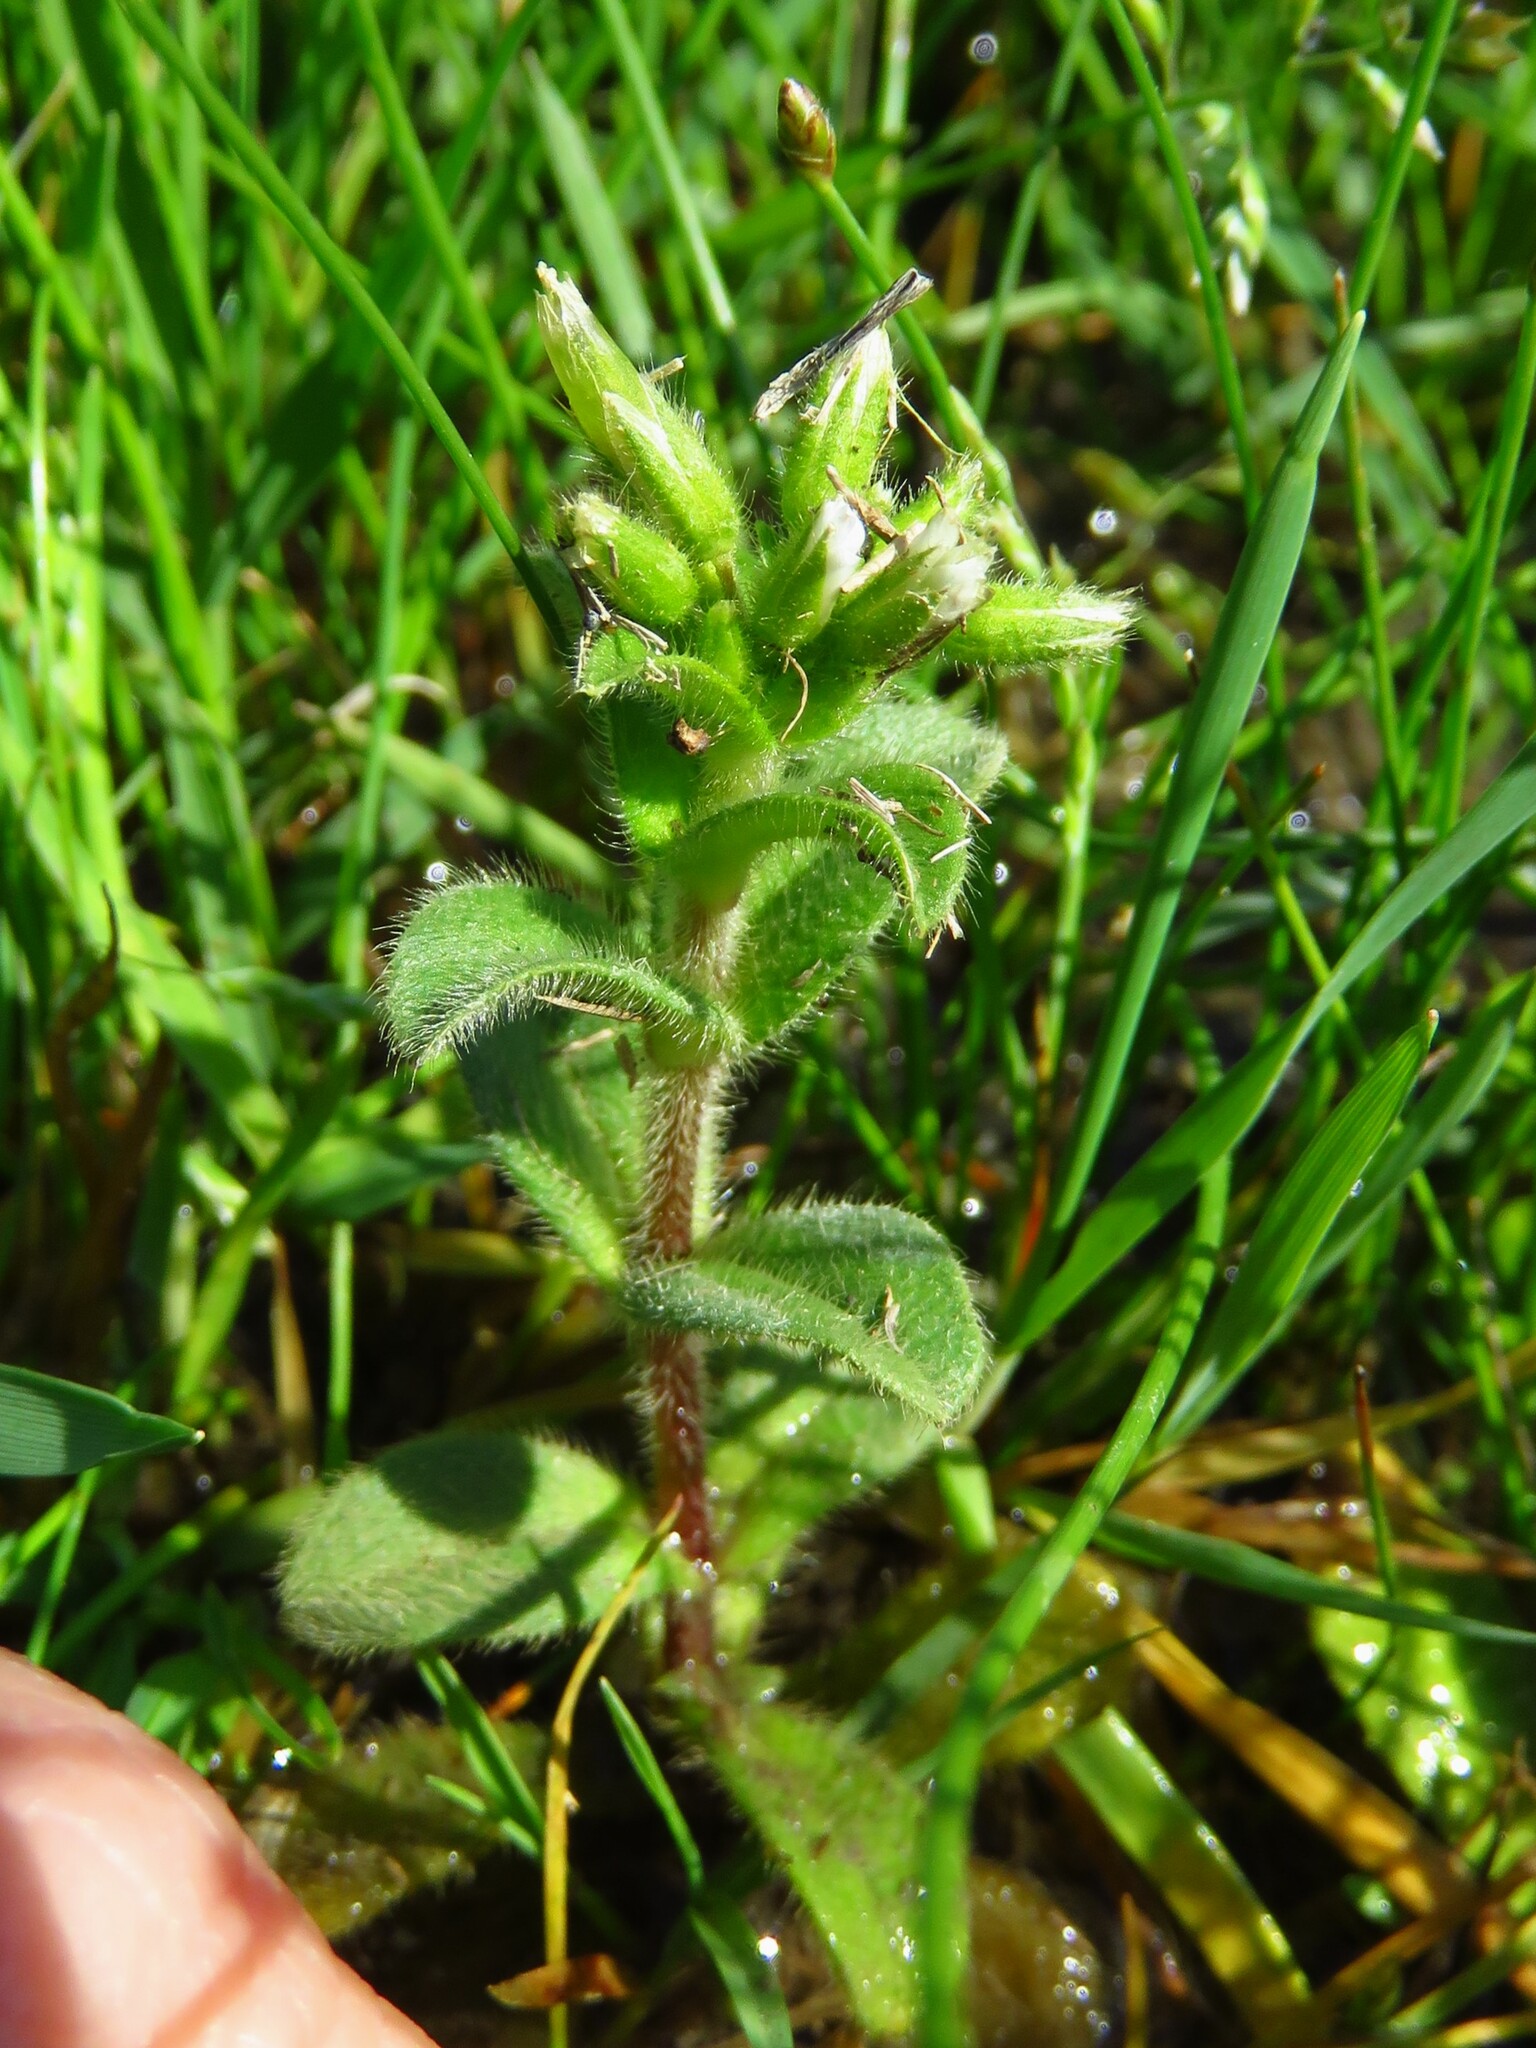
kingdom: Plantae
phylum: Tracheophyta
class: Magnoliopsida
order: Caryophyllales
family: Caryophyllaceae
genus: Cerastium
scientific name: Cerastium glomeratum
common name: Sticky chickweed
